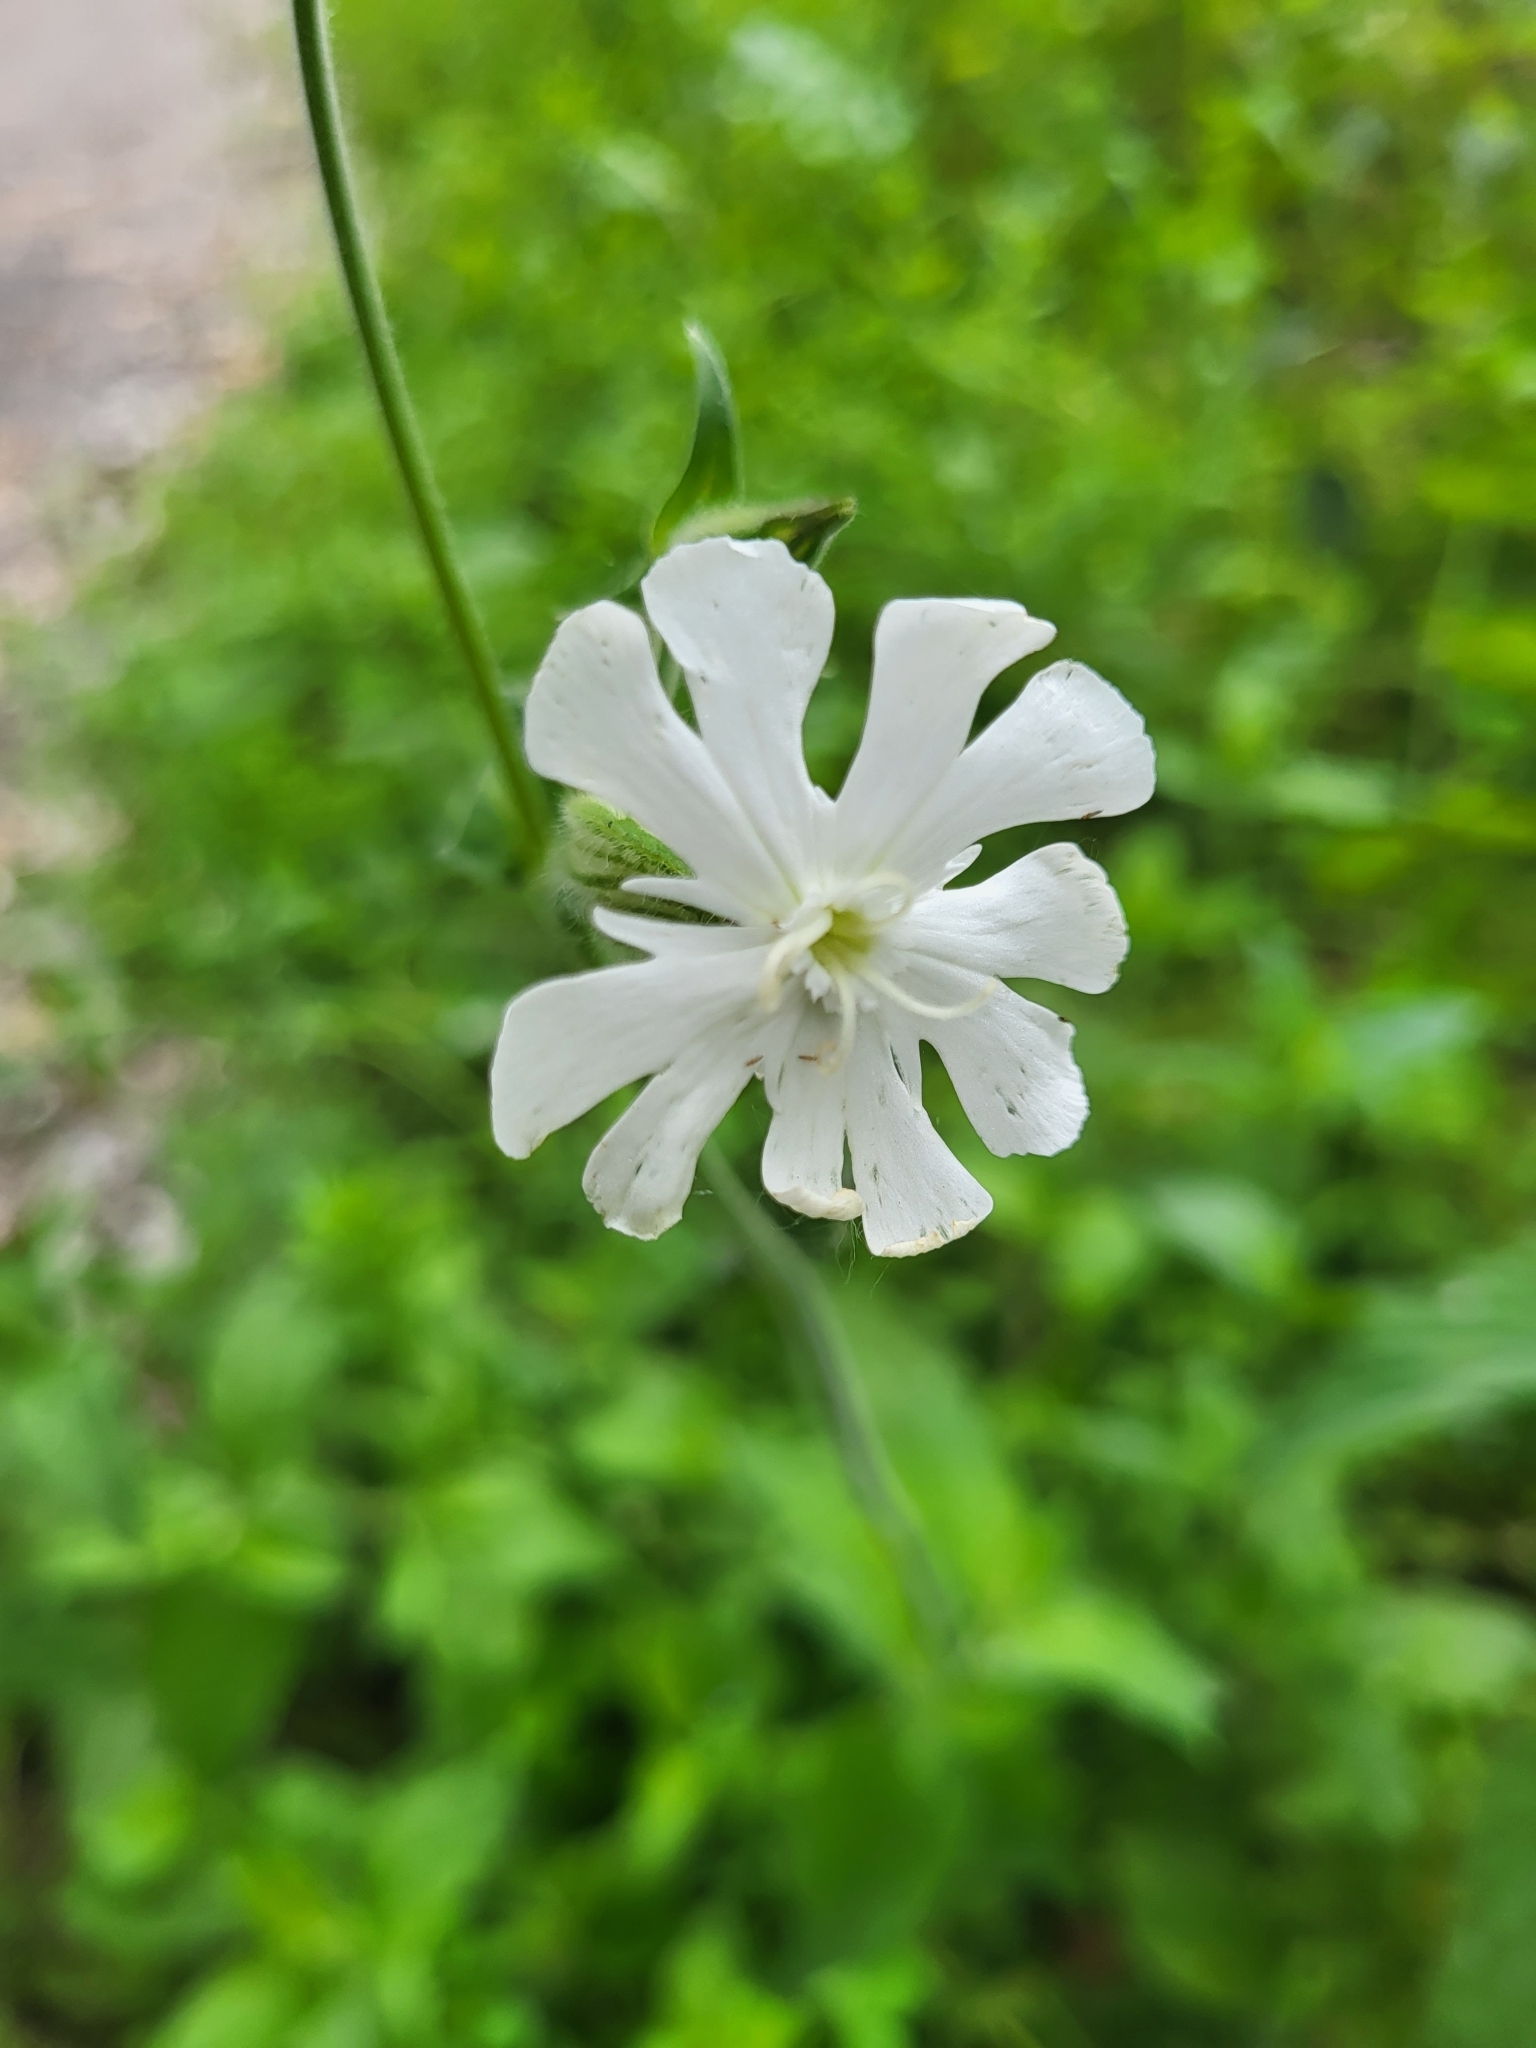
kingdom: Plantae
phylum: Tracheophyta
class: Magnoliopsida
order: Caryophyllales
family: Caryophyllaceae
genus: Silene
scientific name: Silene latifolia
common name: White campion
